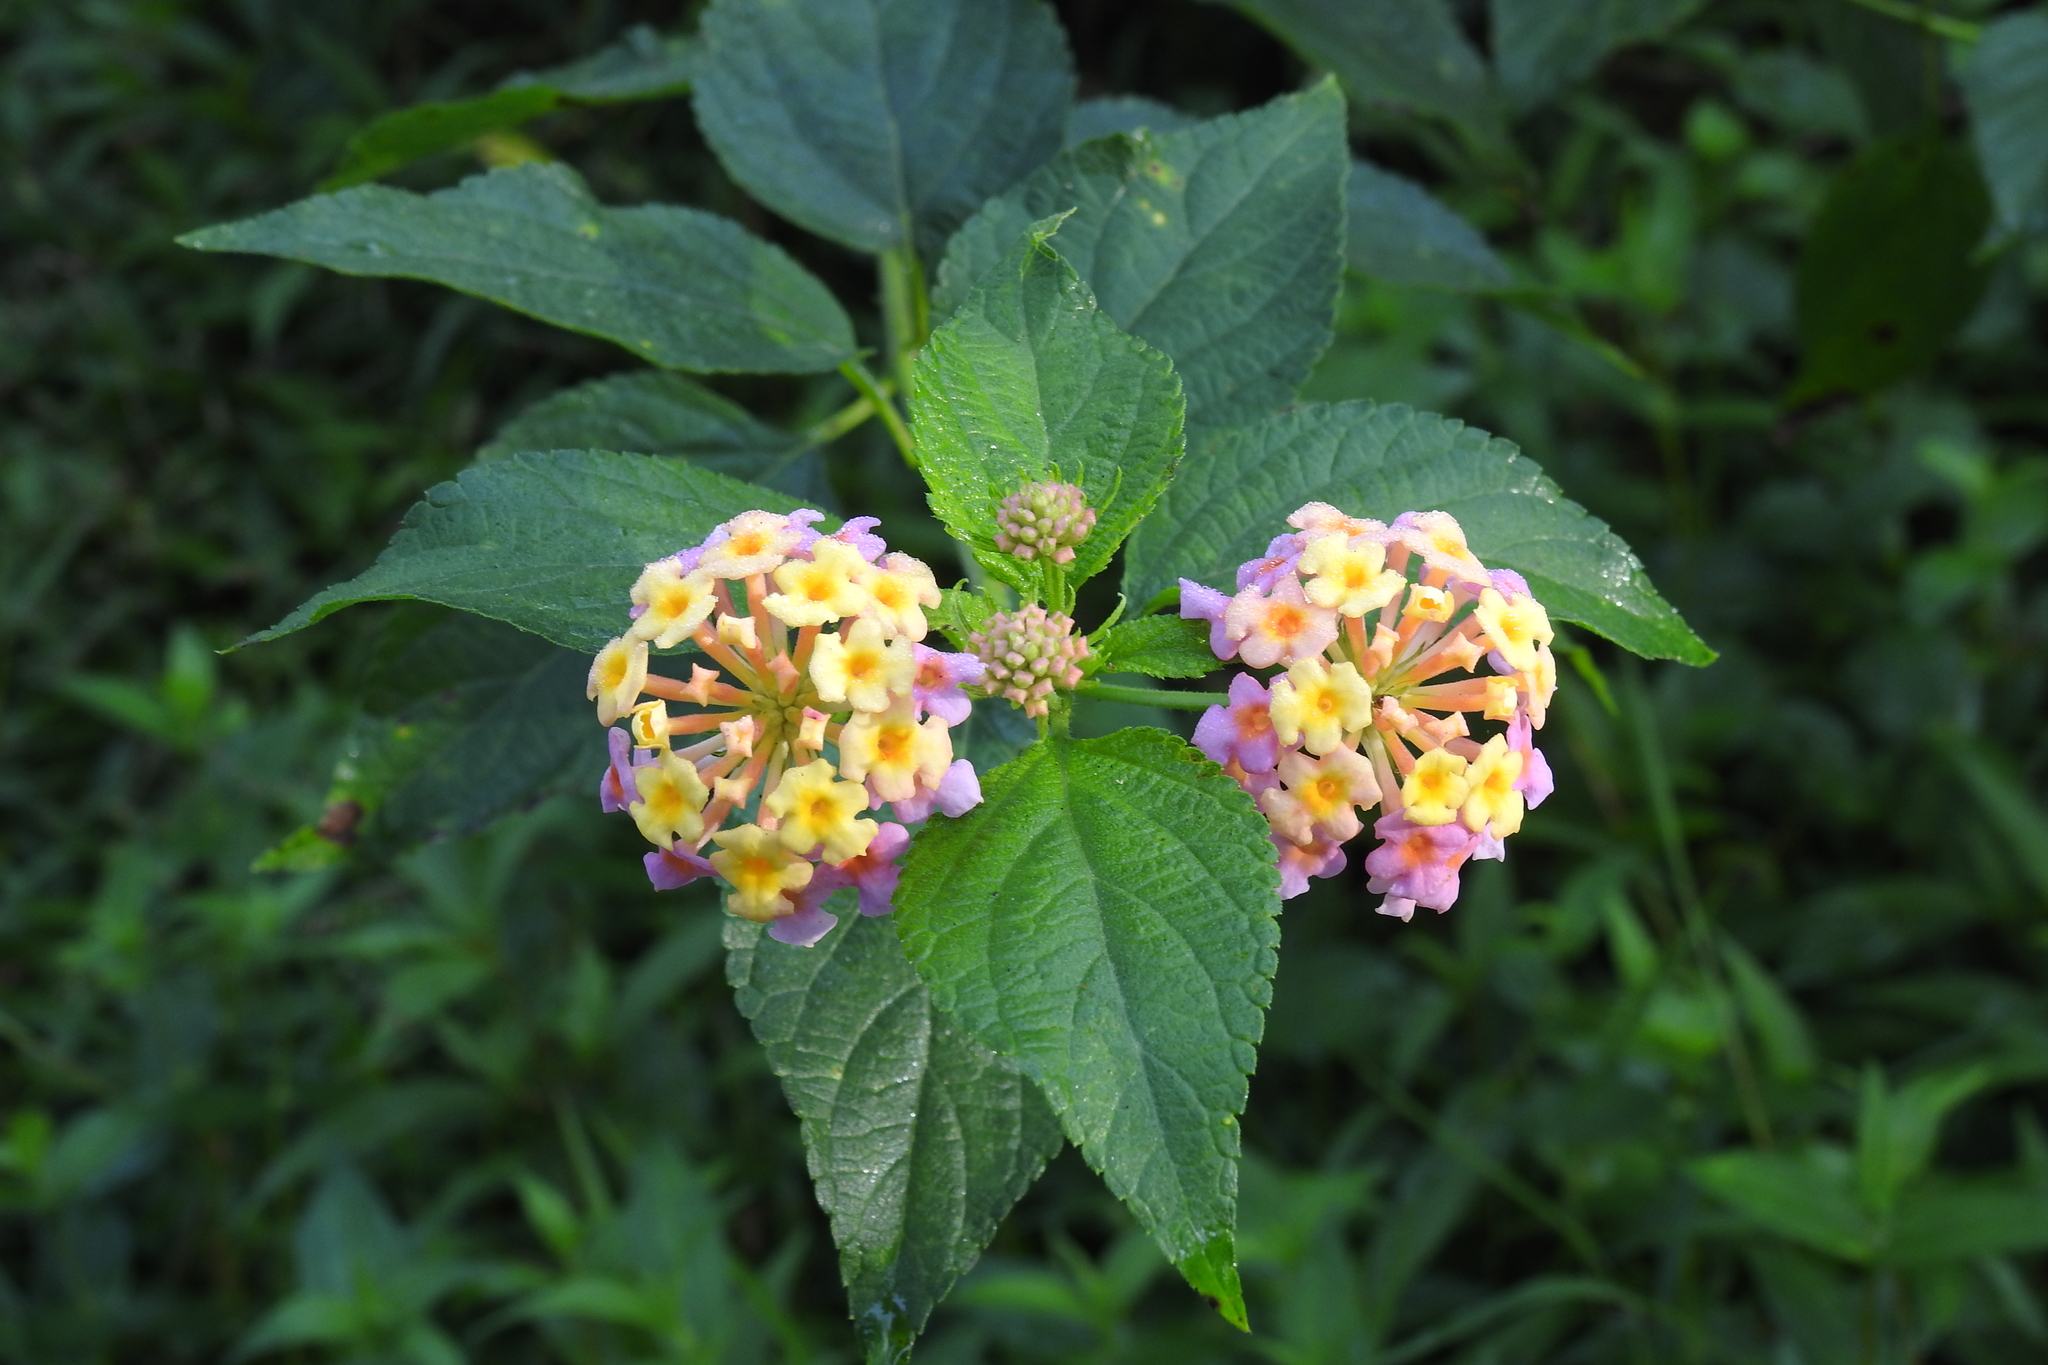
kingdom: Plantae
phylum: Tracheophyta
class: Magnoliopsida
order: Lamiales
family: Verbenaceae
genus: Lantana
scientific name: Lantana camara
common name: Lantana
